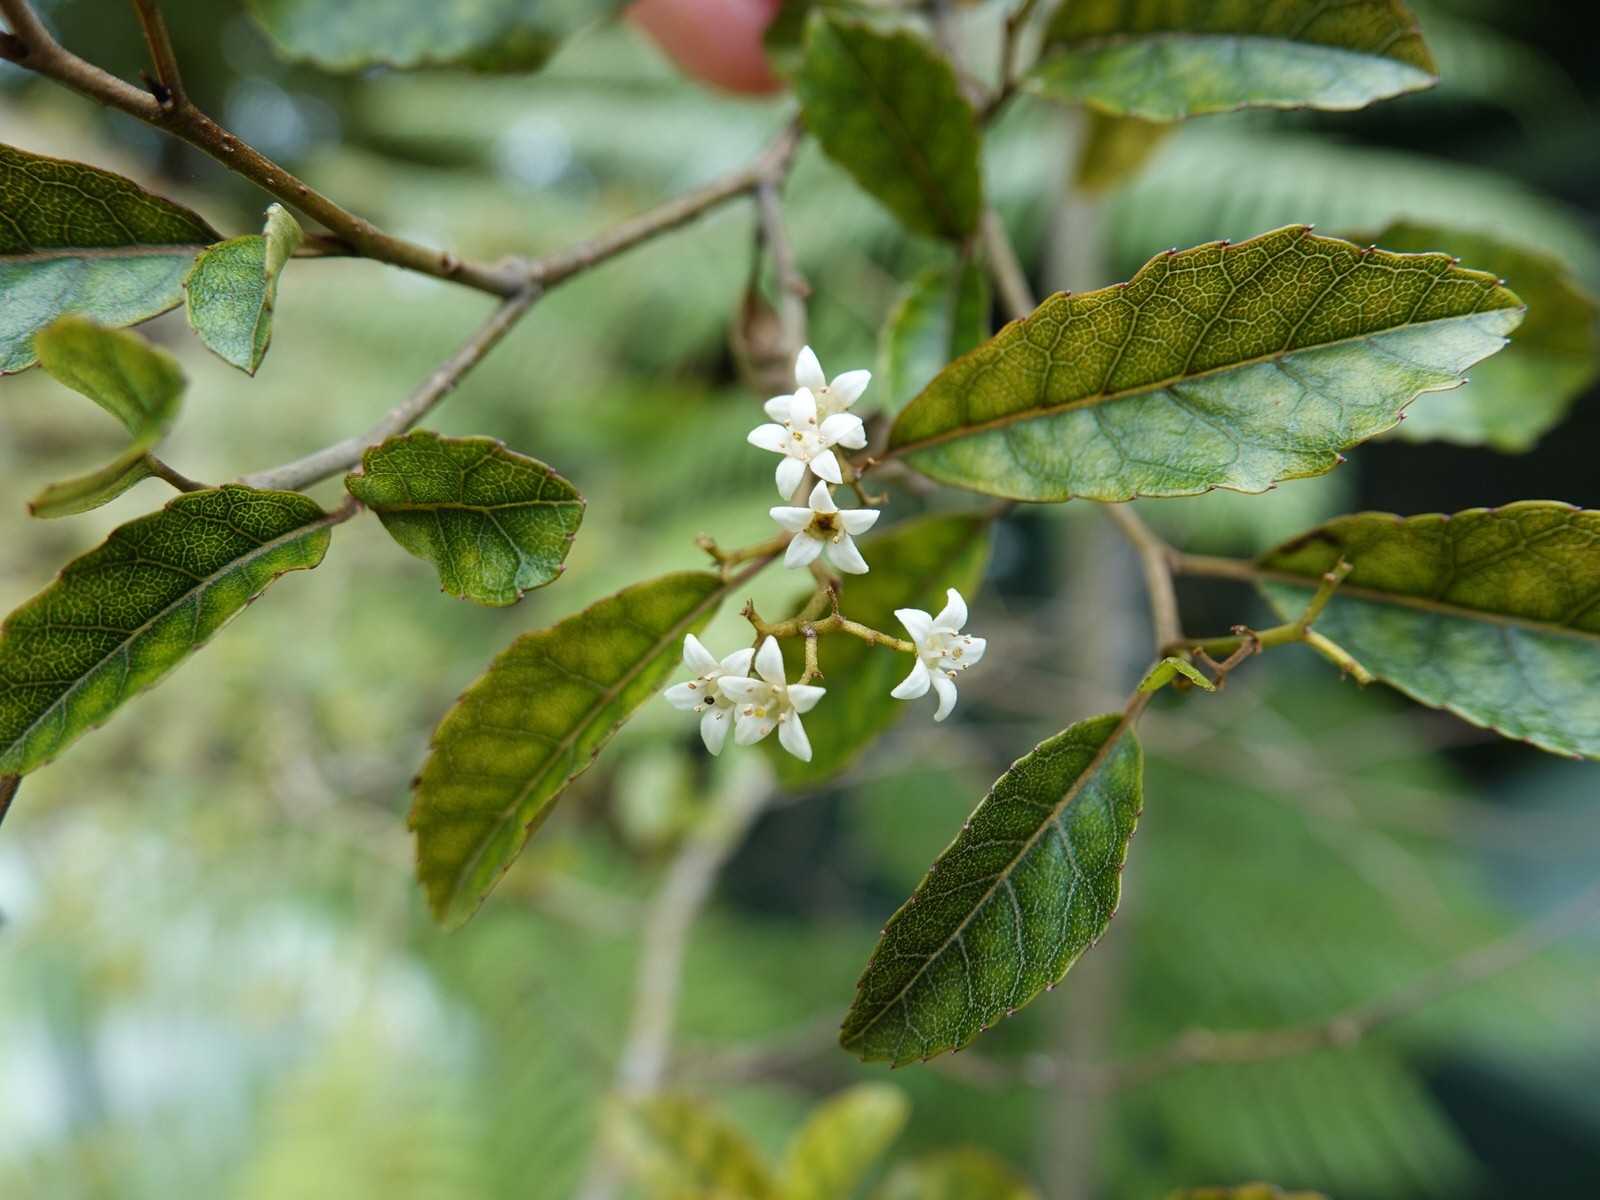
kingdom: Plantae
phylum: Tracheophyta
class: Magnoliopsida
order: Asterales
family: Rousseaceae
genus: Carpodetus
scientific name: Carpodetus serratus
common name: White mapau
